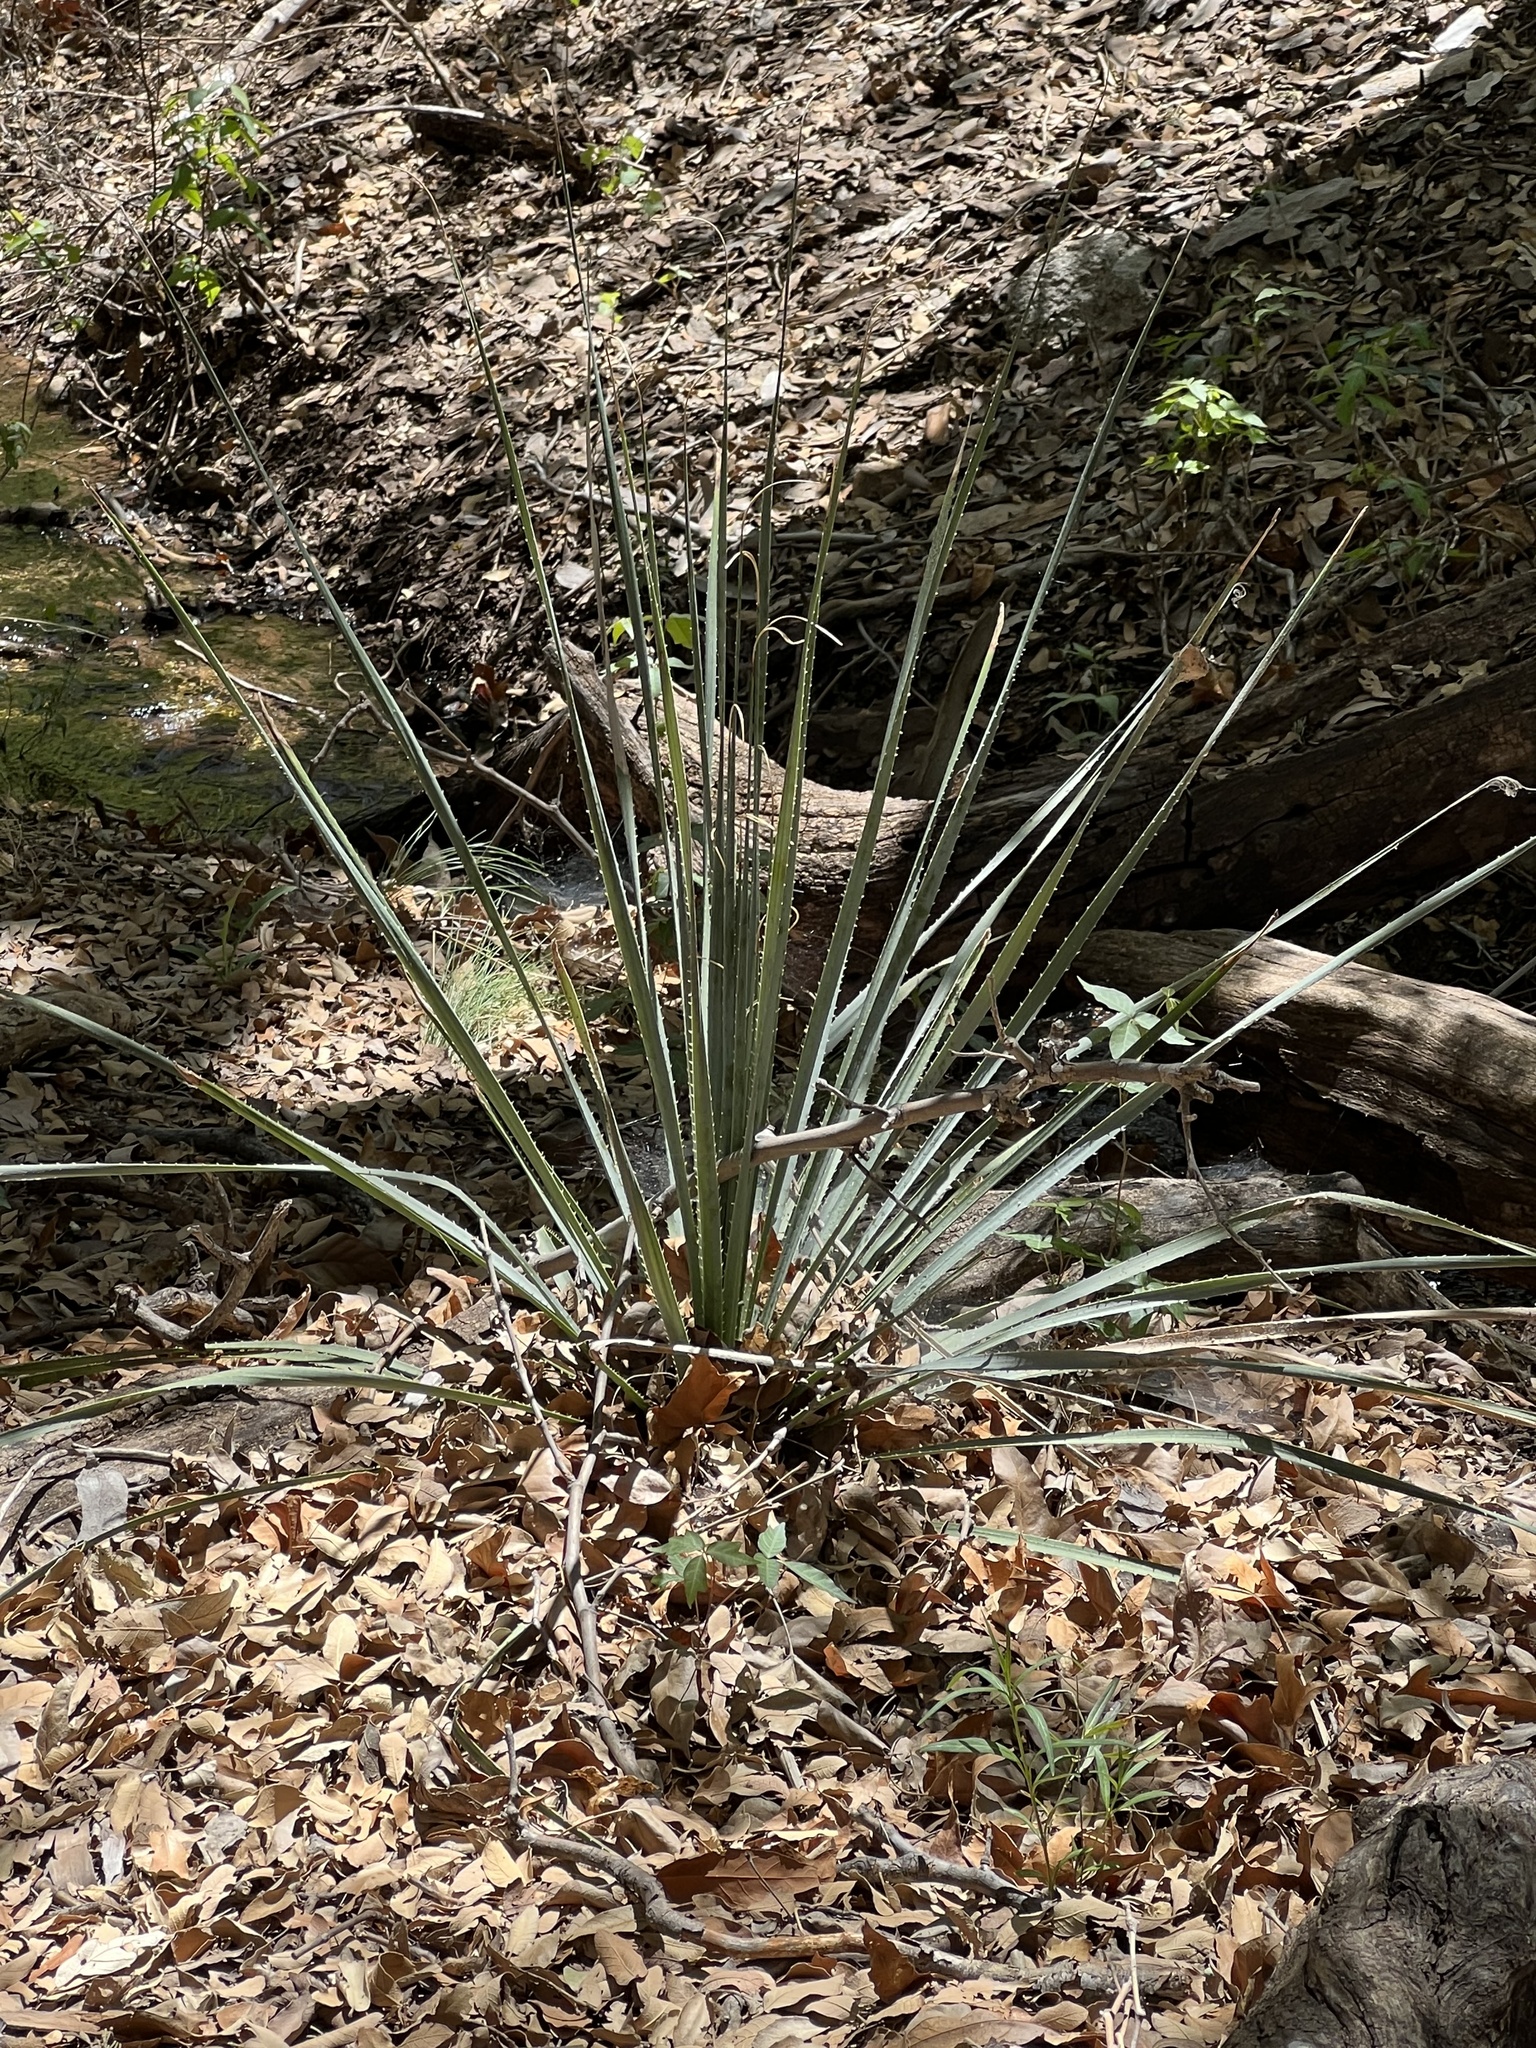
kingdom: Plantae
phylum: Tracheophyta
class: Liliopsida
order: Asparagales
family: Asparagaceae
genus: Dasylirion
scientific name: Dasylirion wheeleri
